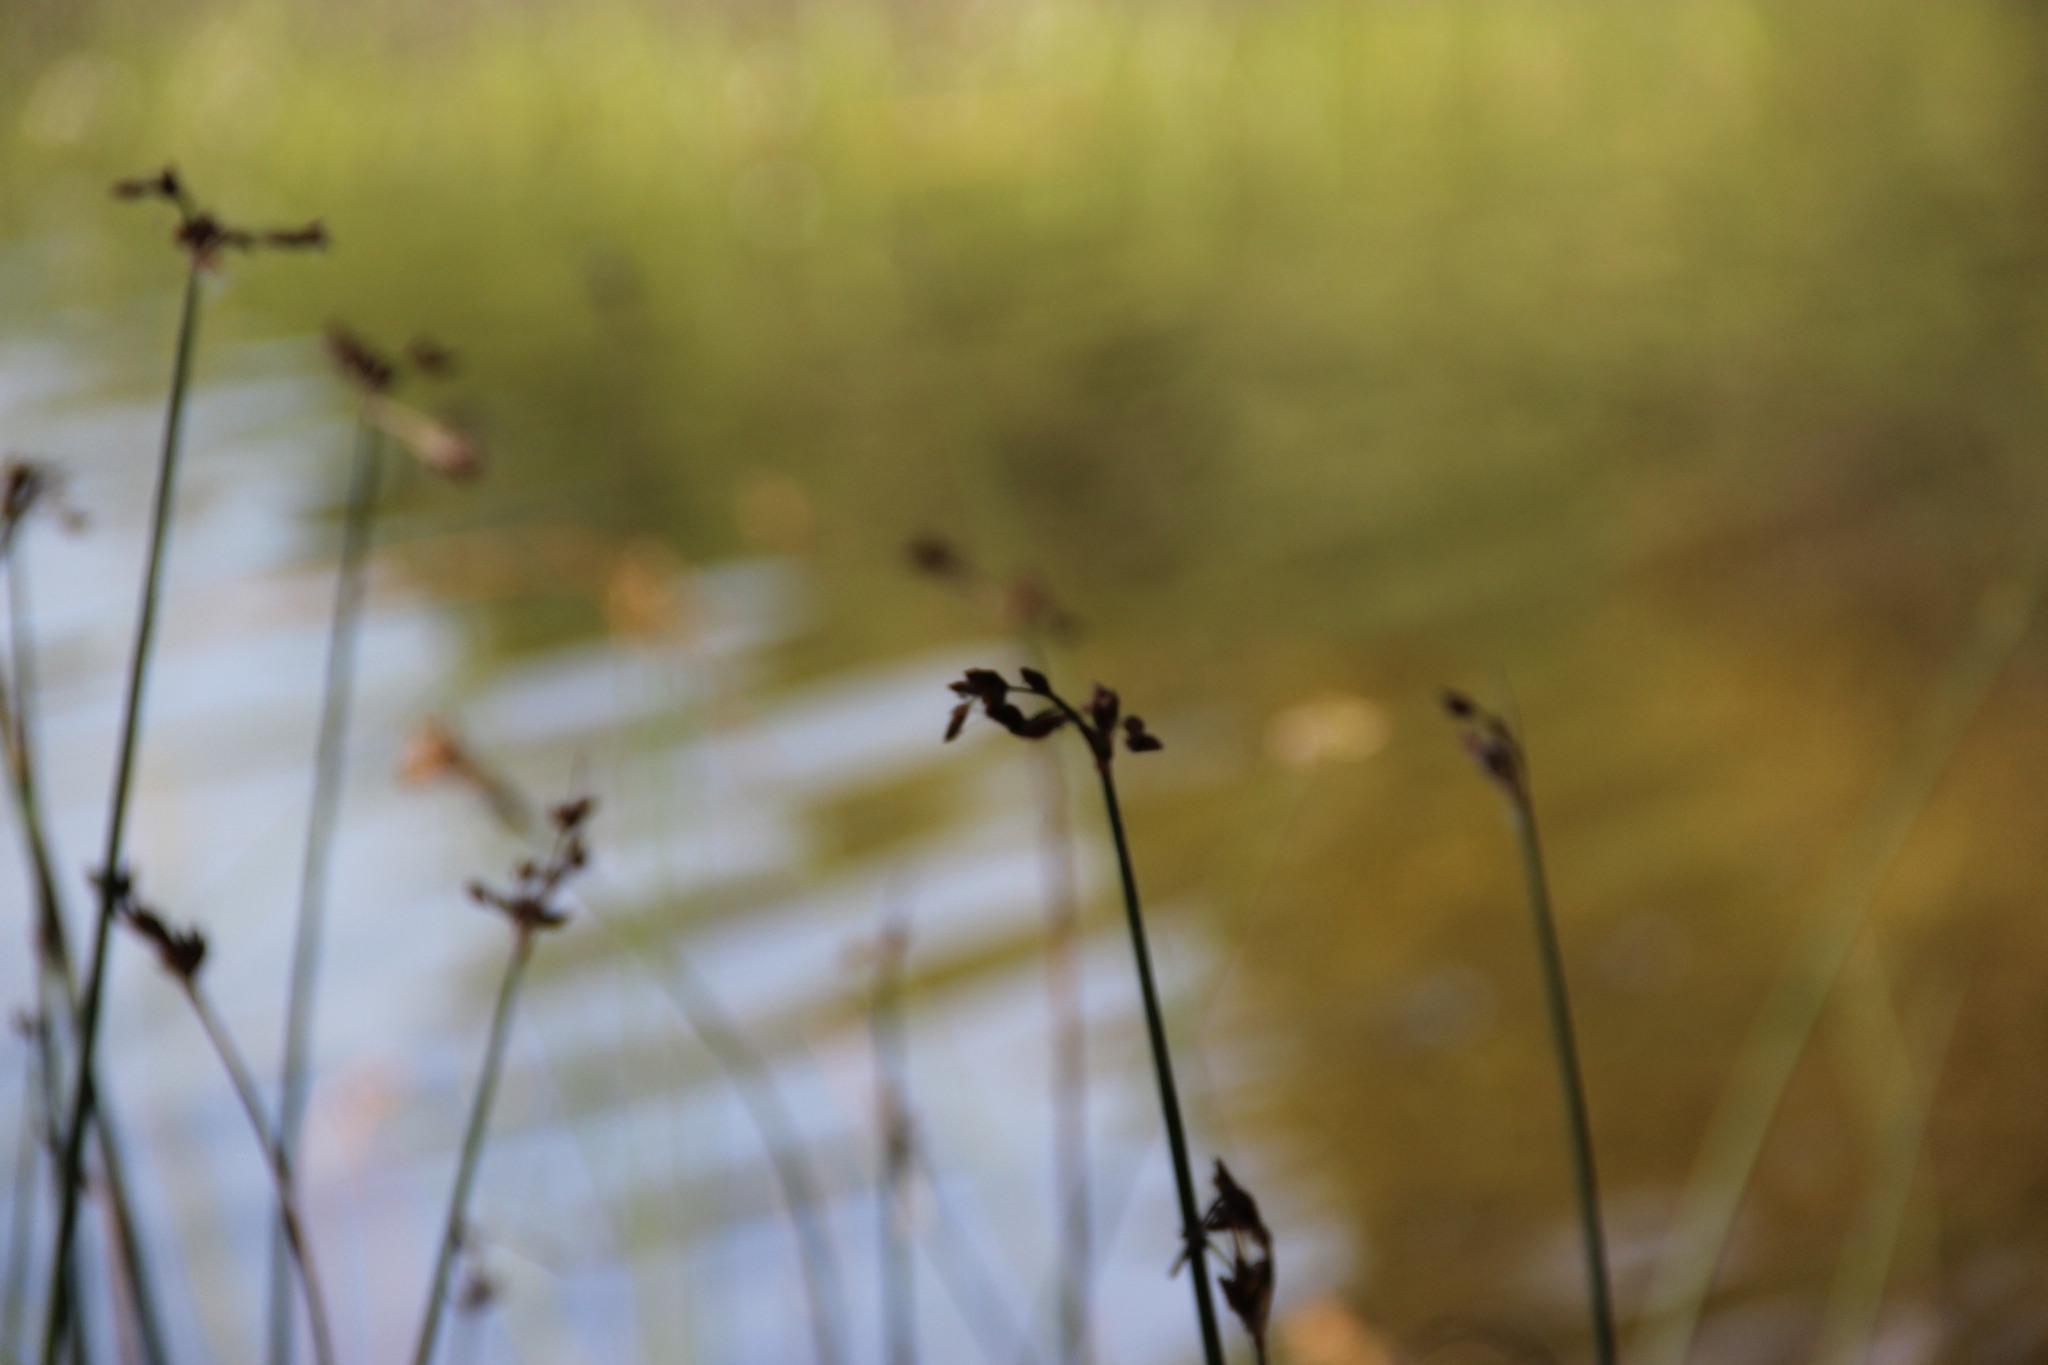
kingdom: Plantae
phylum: Tracheophyta
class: Liliopsida
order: Poales
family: Cyperaceae
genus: Schoenoplectus
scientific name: Schoenoplectus lacustris
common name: Common club-rush
